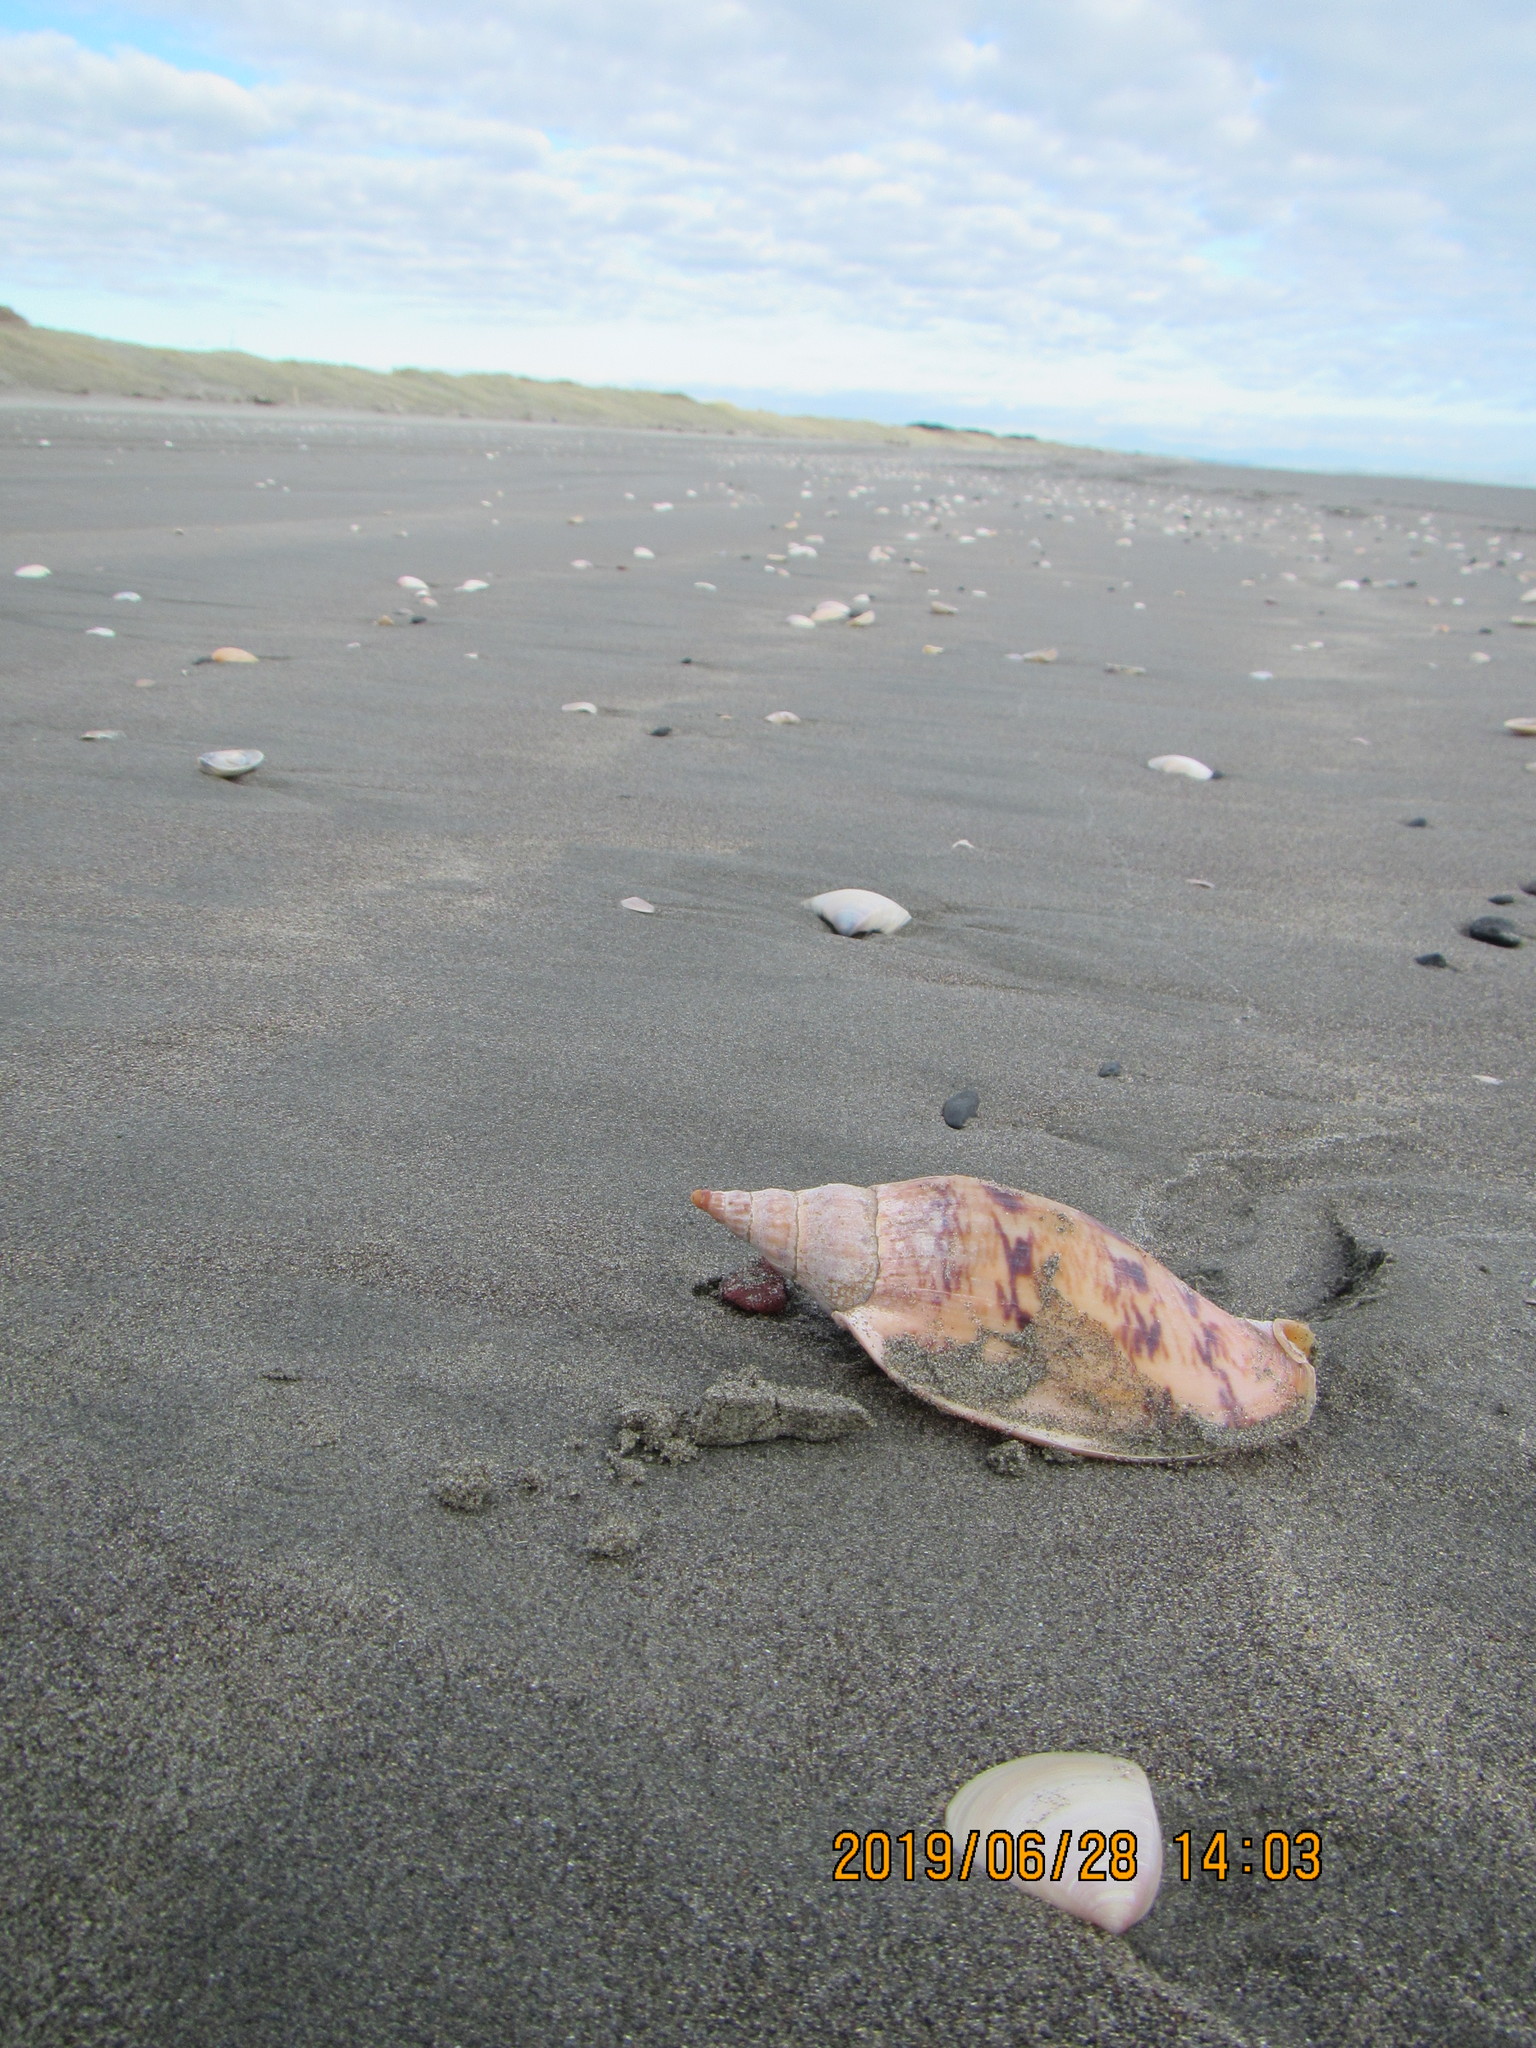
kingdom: Animalia
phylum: Mollusca
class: Gastropoda
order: Neogastropoda
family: Volutidae
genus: Alcithoe
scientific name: Alcithoe arabica
